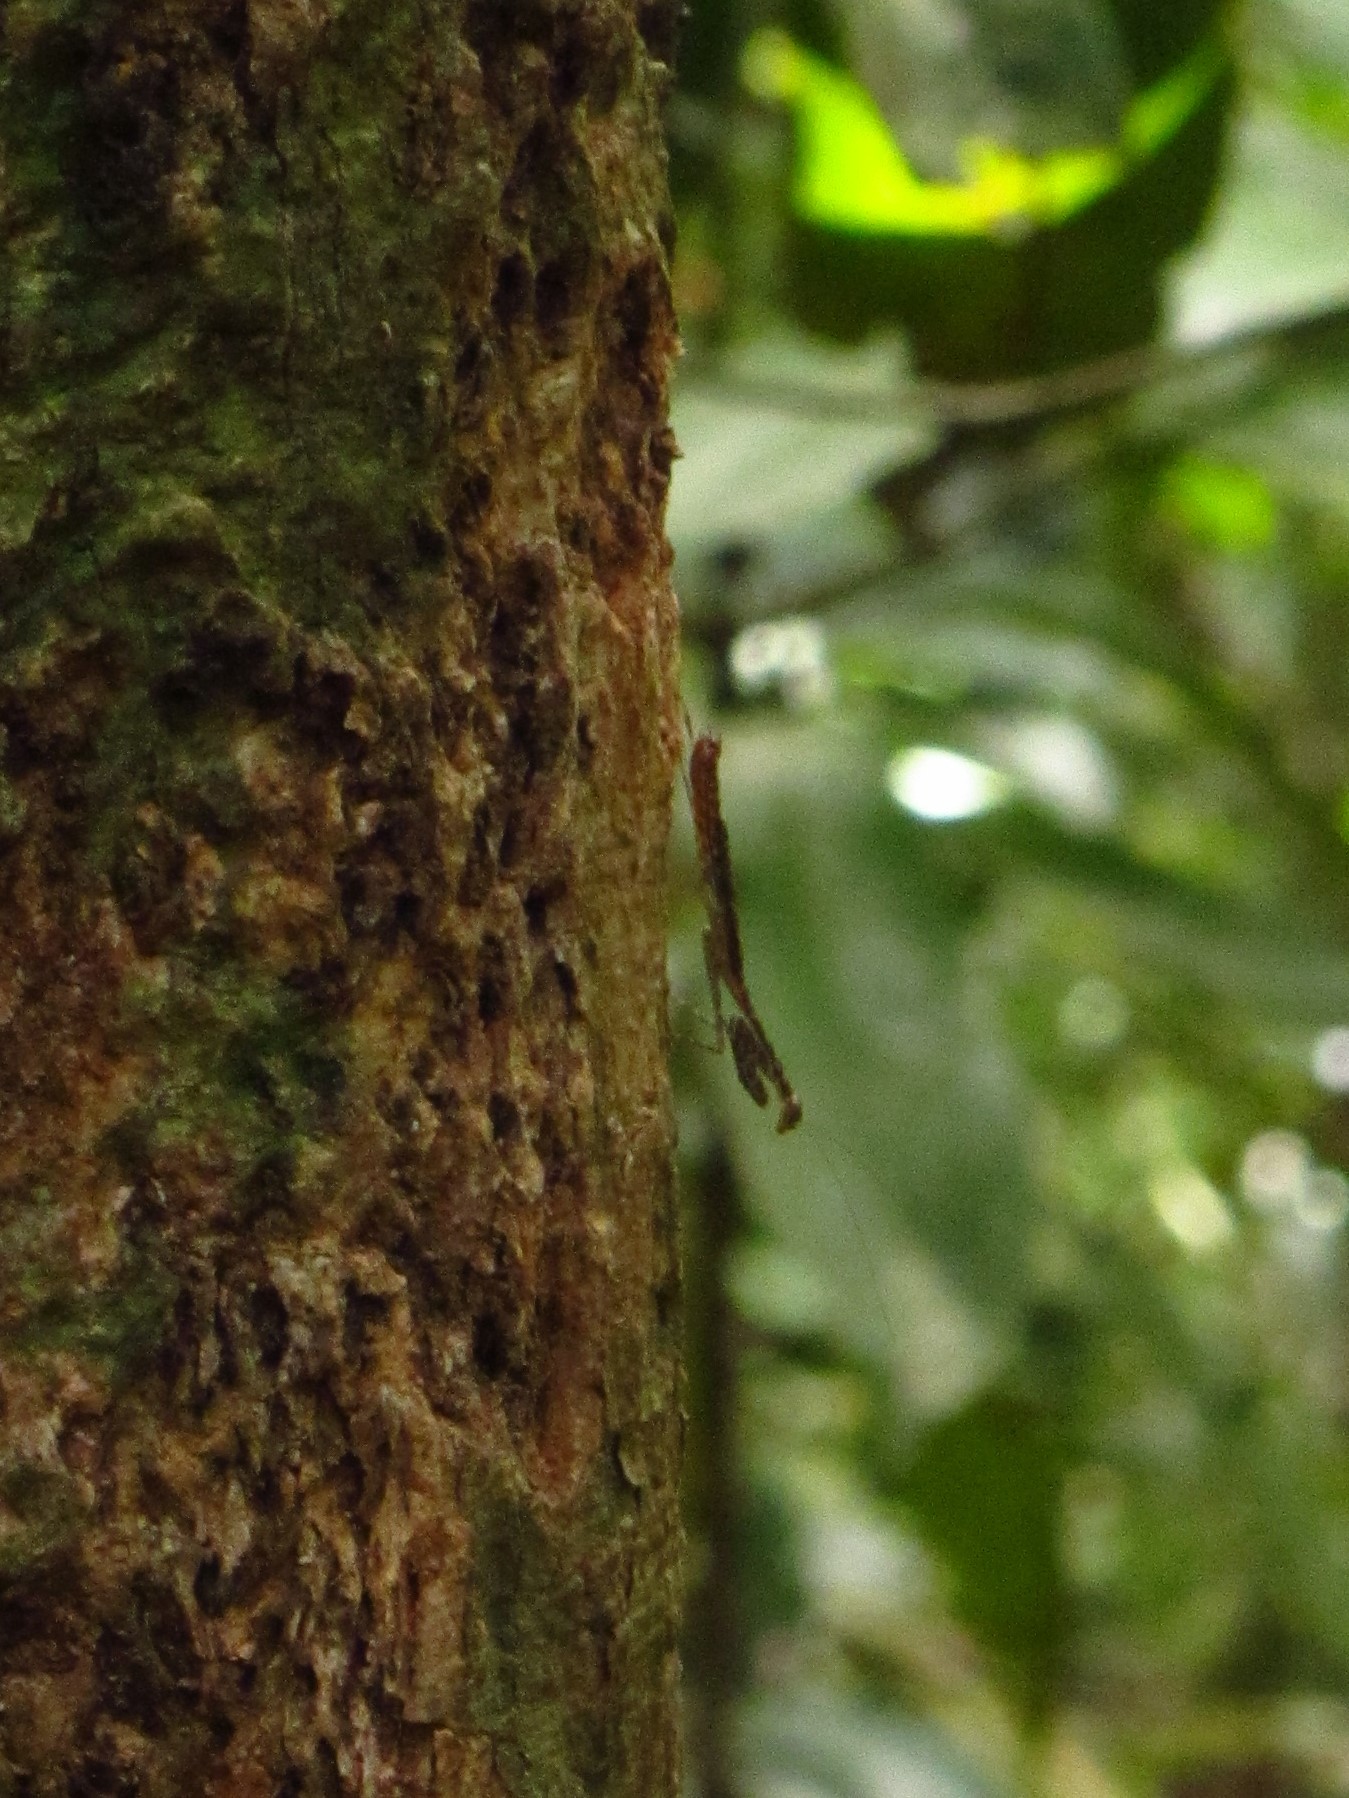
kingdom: Animalia
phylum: Arthropoda
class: Insecta
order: Mantodea
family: Nanomantidae
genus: Ciulfina
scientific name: Ciulfina rentzi
